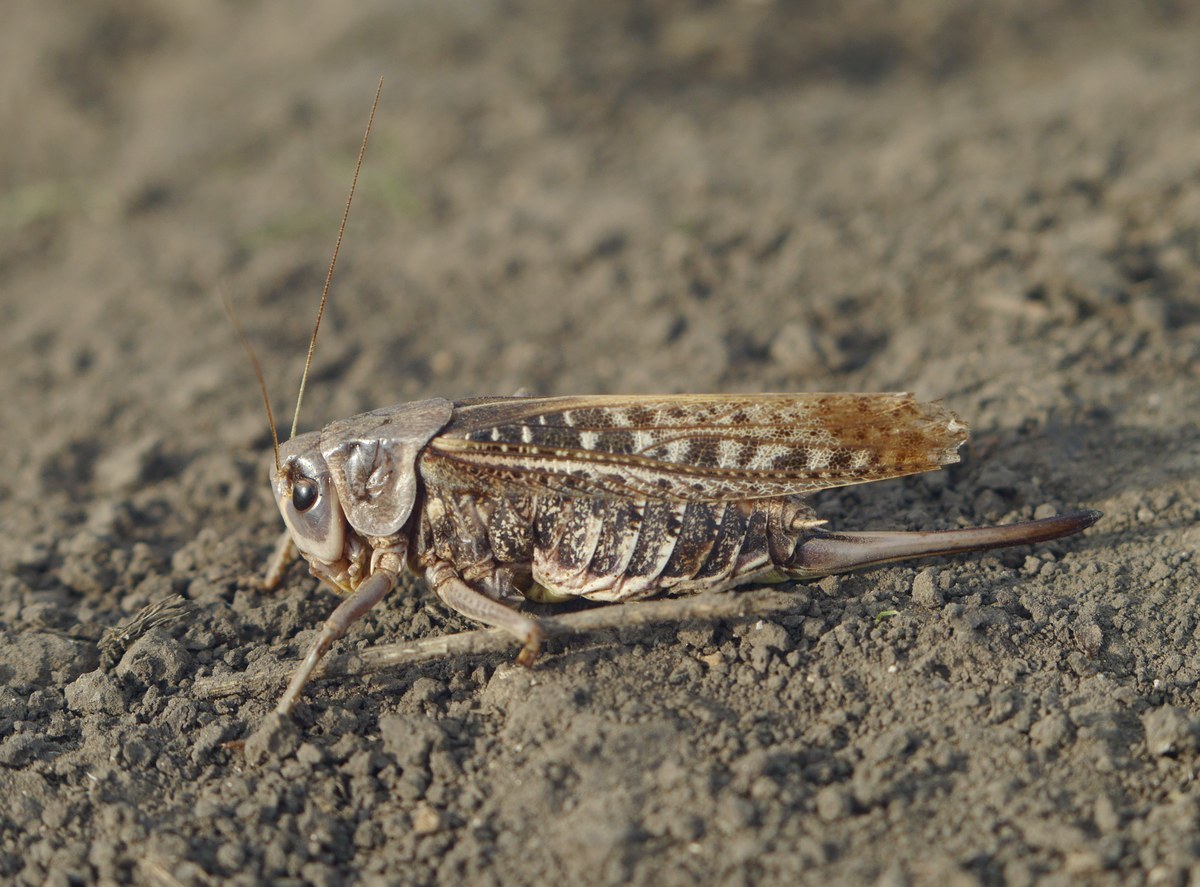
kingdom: Animalia
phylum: Arthropoda
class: Insecta
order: Orthoptera
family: Tettigoniidae
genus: Decticus
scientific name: Decticus verrucivorus
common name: Wart-biter
